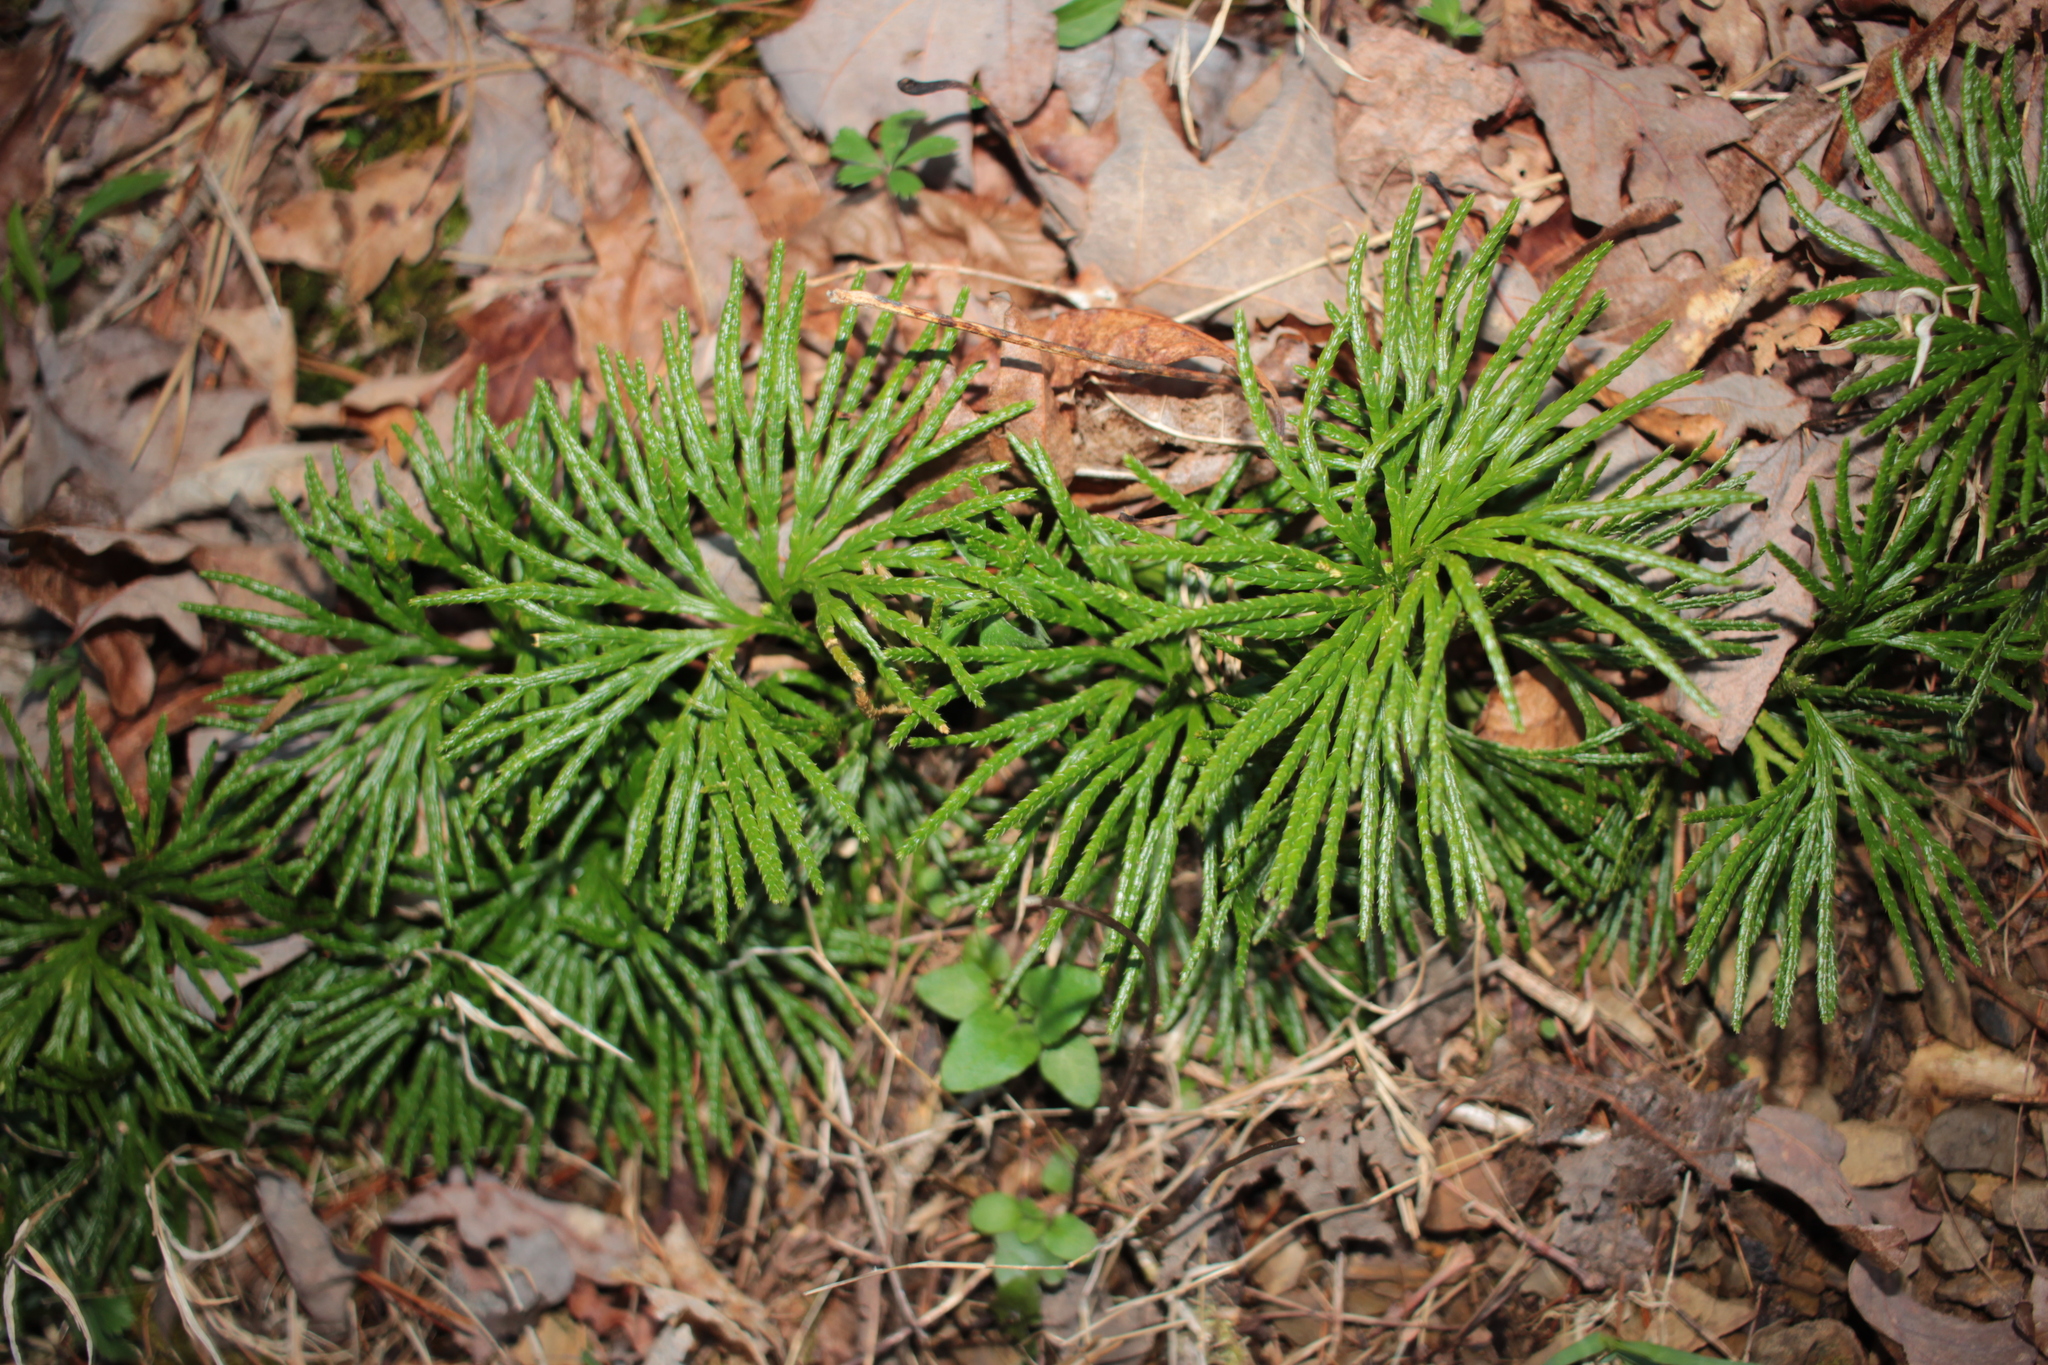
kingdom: Plantae
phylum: Tracheophyta
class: Lycopodiopsida
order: Lycopodiales
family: Lycopodiaceae
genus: Diphasiastrum
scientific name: Diphasiastrum digitatum
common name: Southern running-pine
